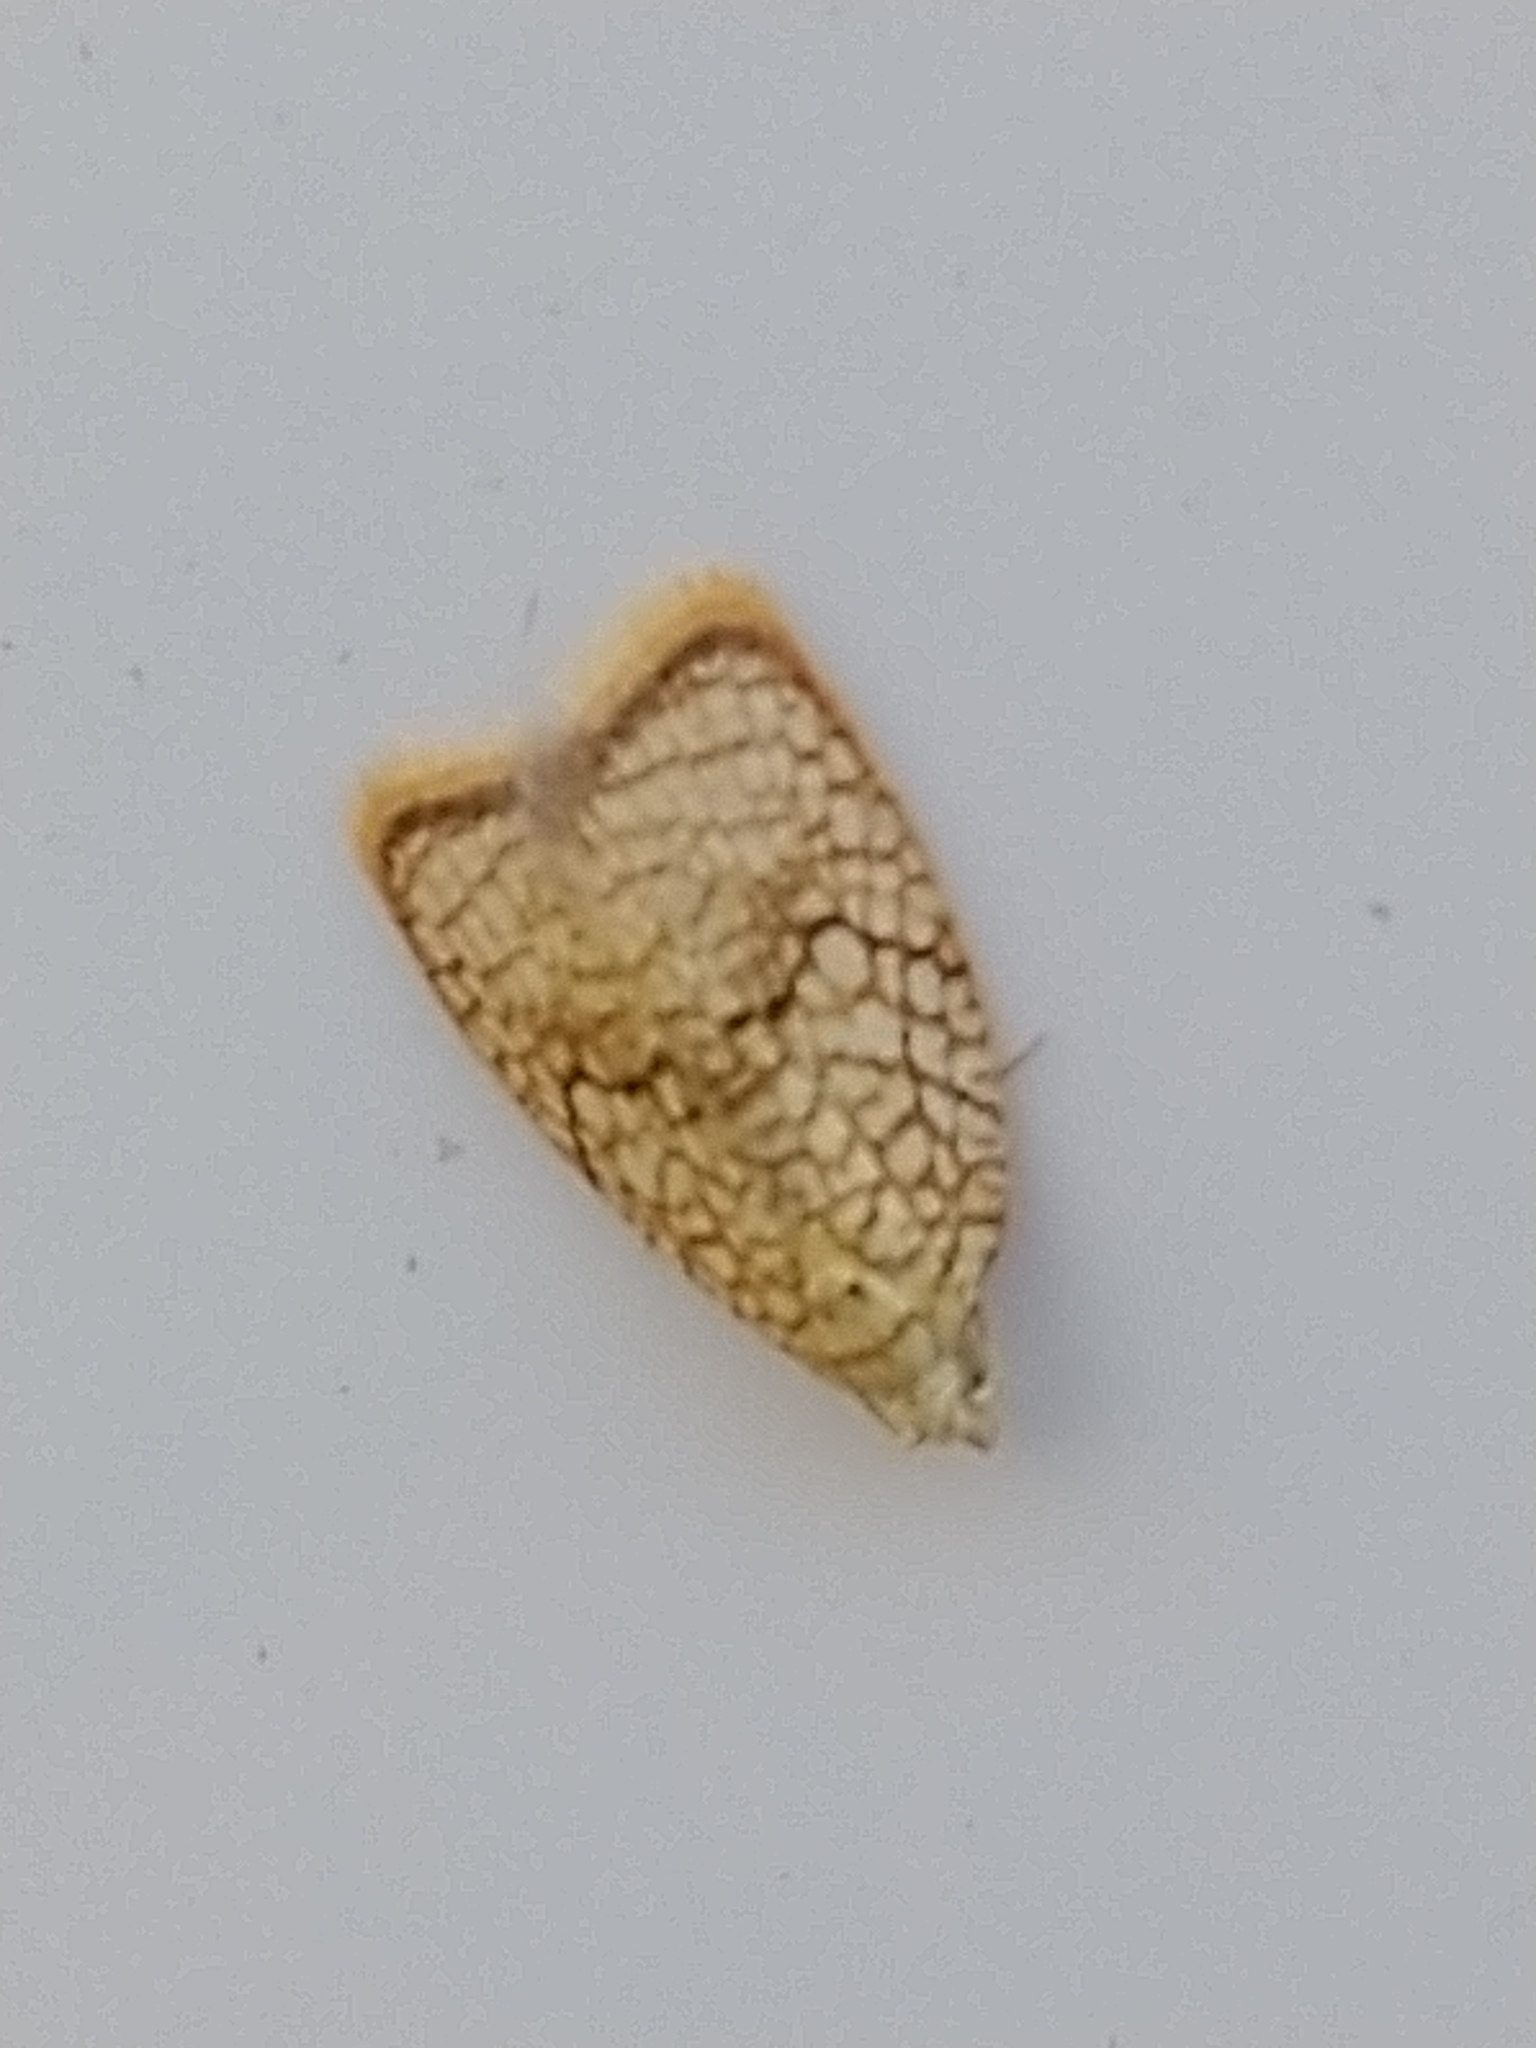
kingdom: Animalia
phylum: Arthropoda
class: Insecta
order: Lepidoptera
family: Tortricidae
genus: Acleris
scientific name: Acleris forsskaleana
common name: Maple button
